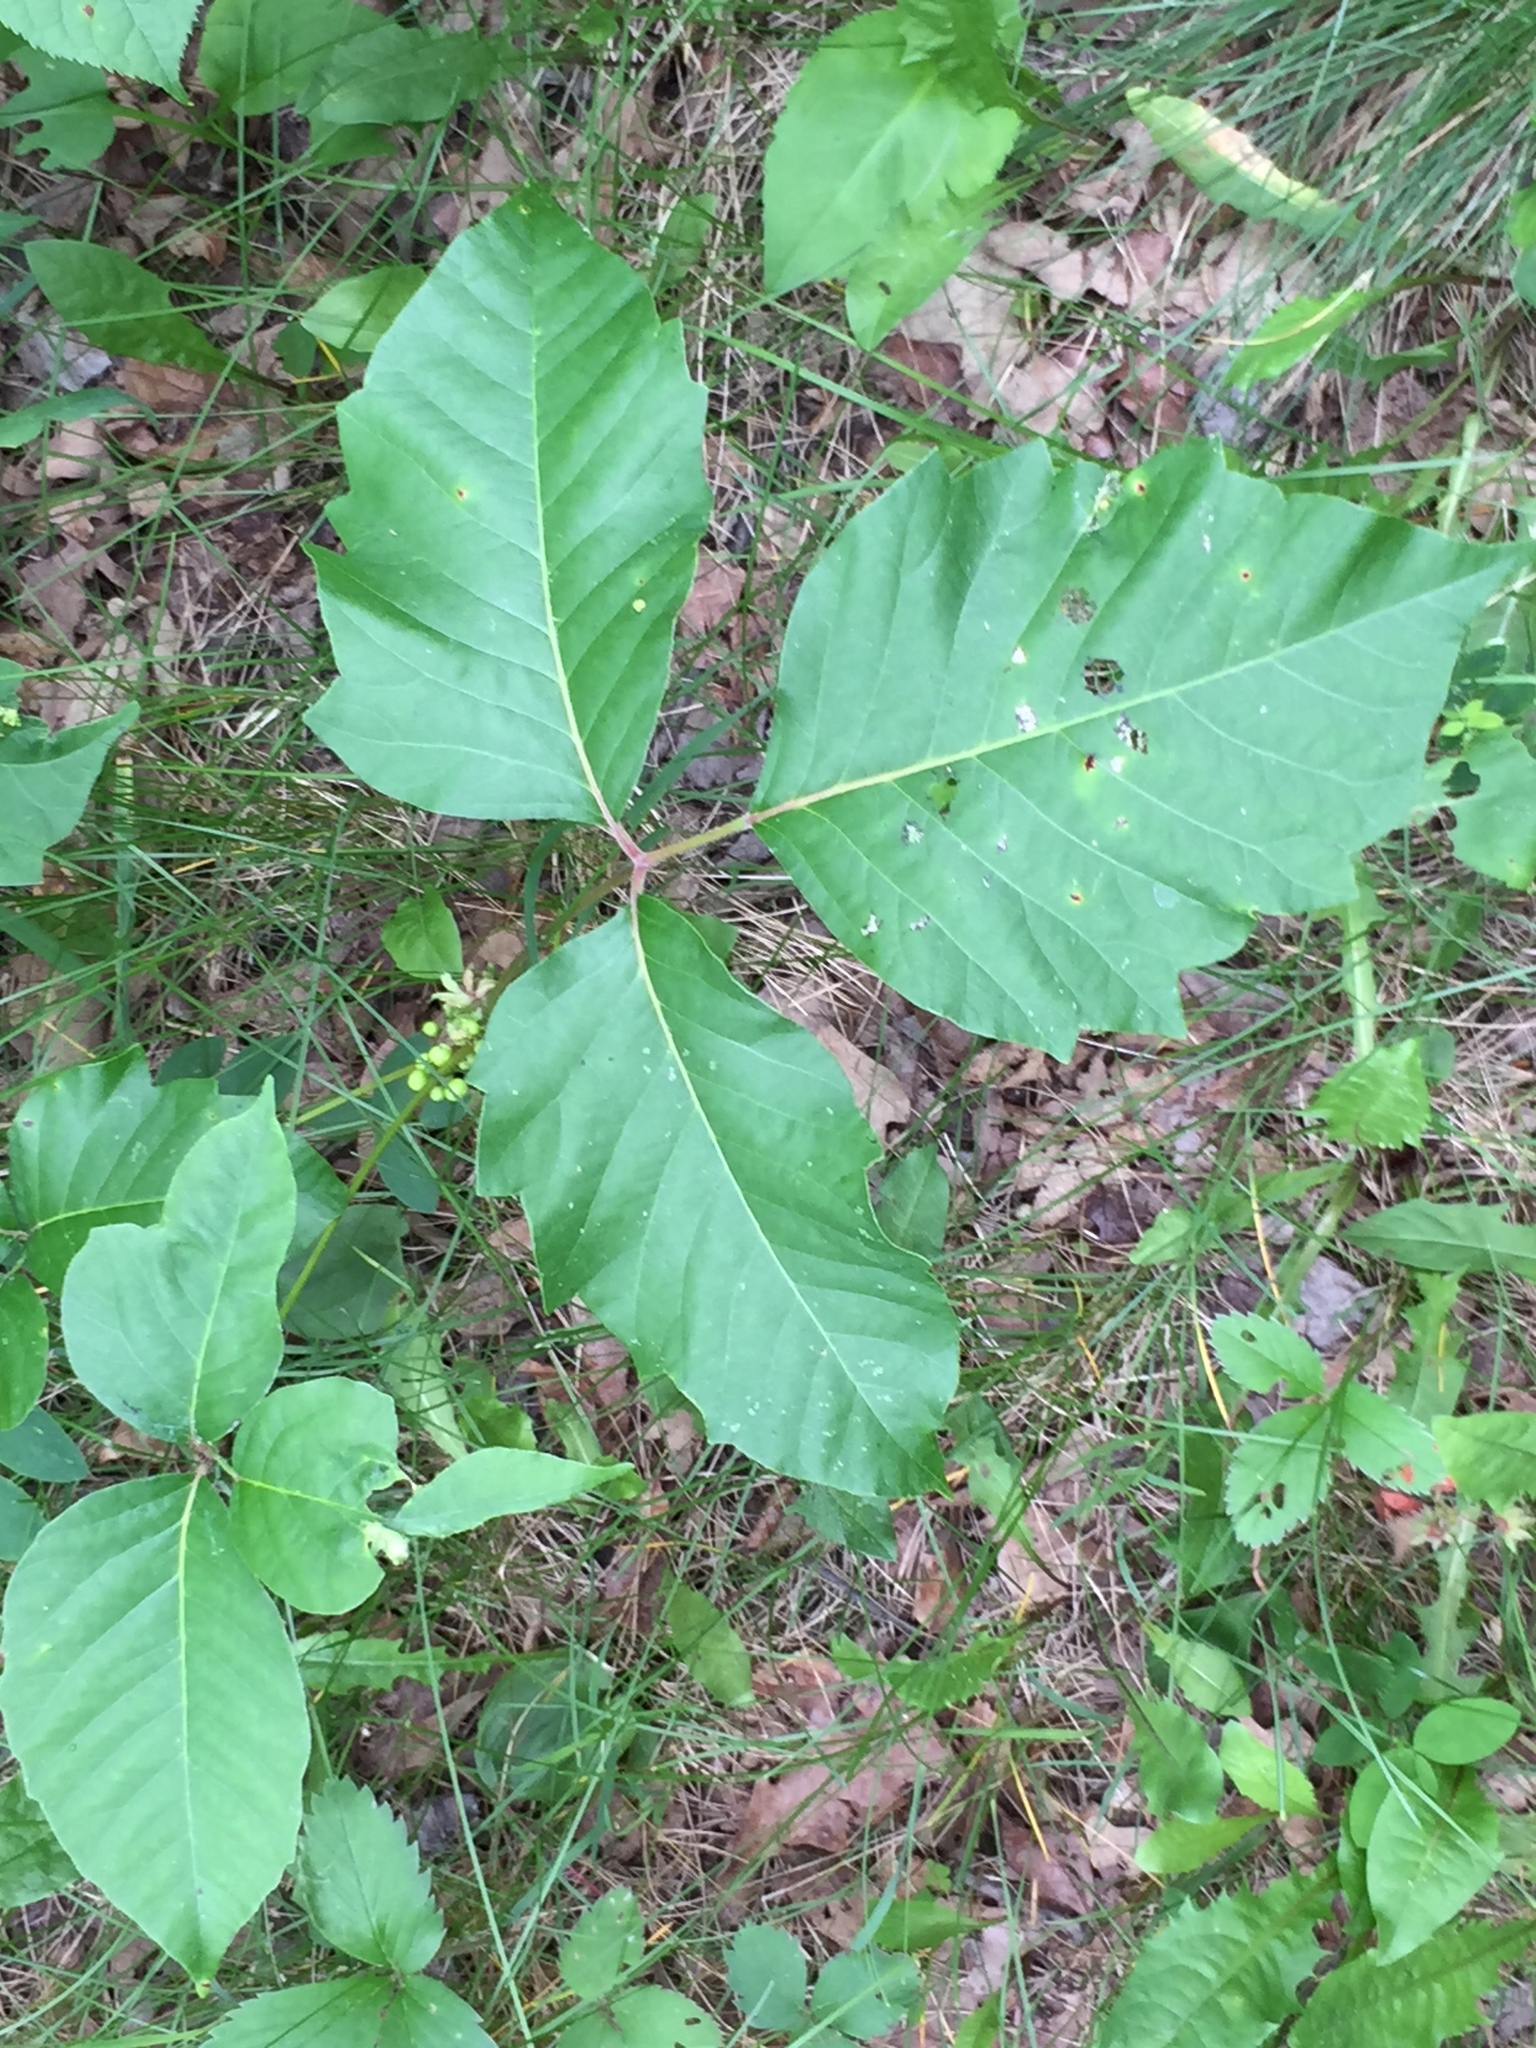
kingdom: Plantae
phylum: Tracheophyta
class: Magnoliopsida
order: Sapindales
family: Anacardiaceae
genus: Toxicodendron
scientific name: Toxicodendron rydbergii
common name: Rydberg's poison-ivy
